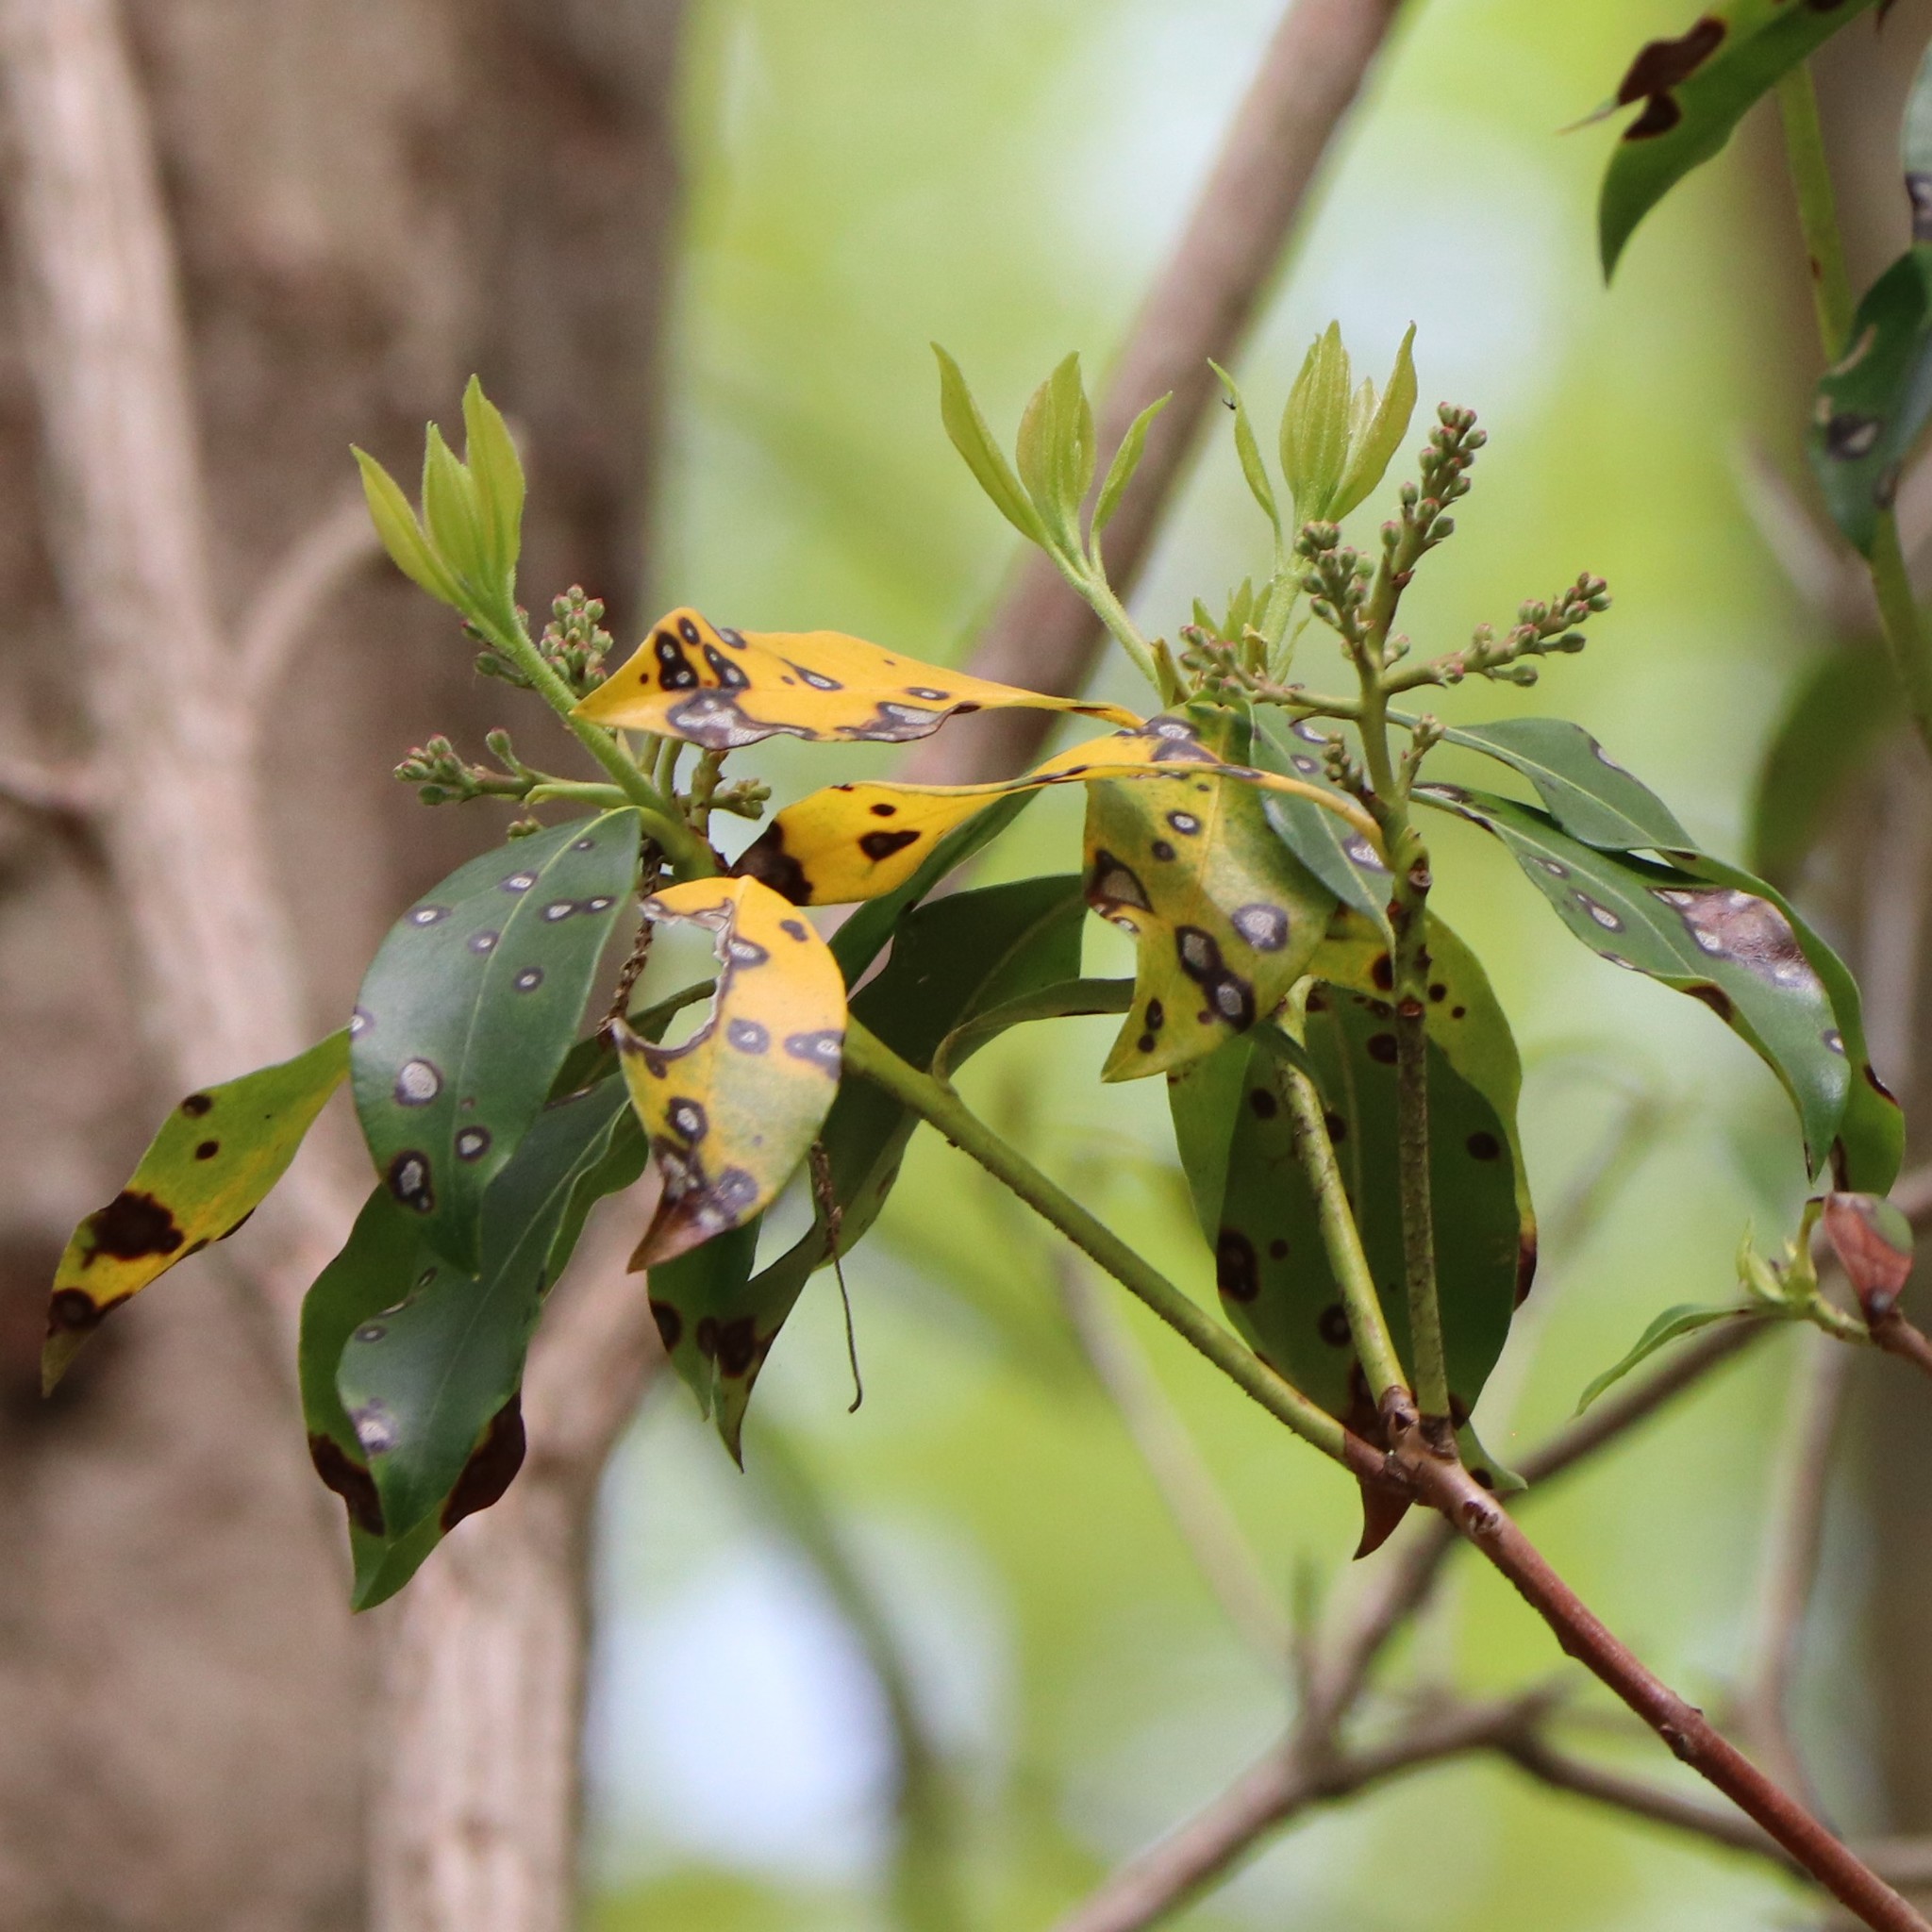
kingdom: Plantae
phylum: Tracheophyta
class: Magnoliopsida
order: Ericales
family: Ericaceae
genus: Kalmia
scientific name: Kalmia latifolia
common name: Mountain-laurel
